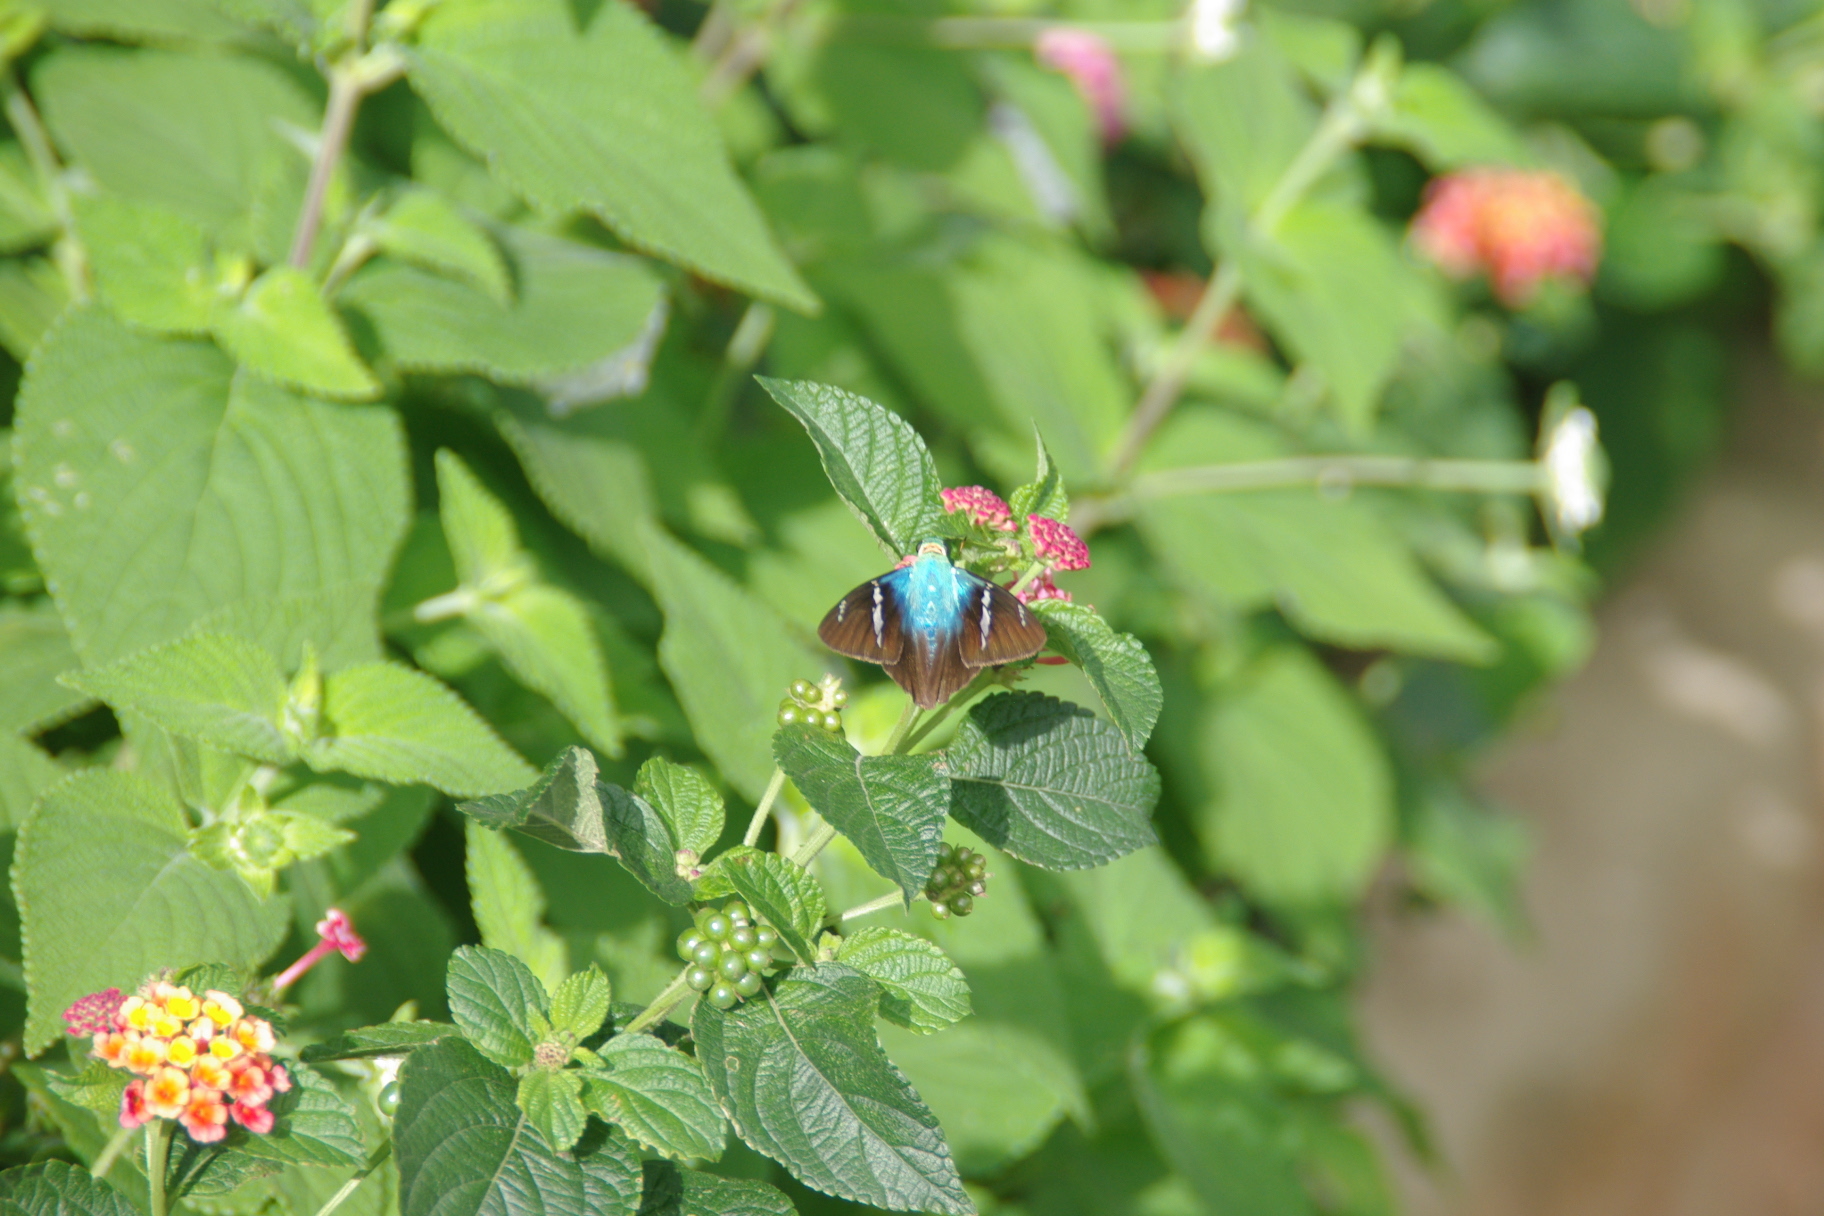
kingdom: Animalia
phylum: Arthropoda
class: Insecta
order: Lepidoptera
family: Hesperiidae
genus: Astraptes
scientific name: Astraptes fulgerator
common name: Two-barred flasher
